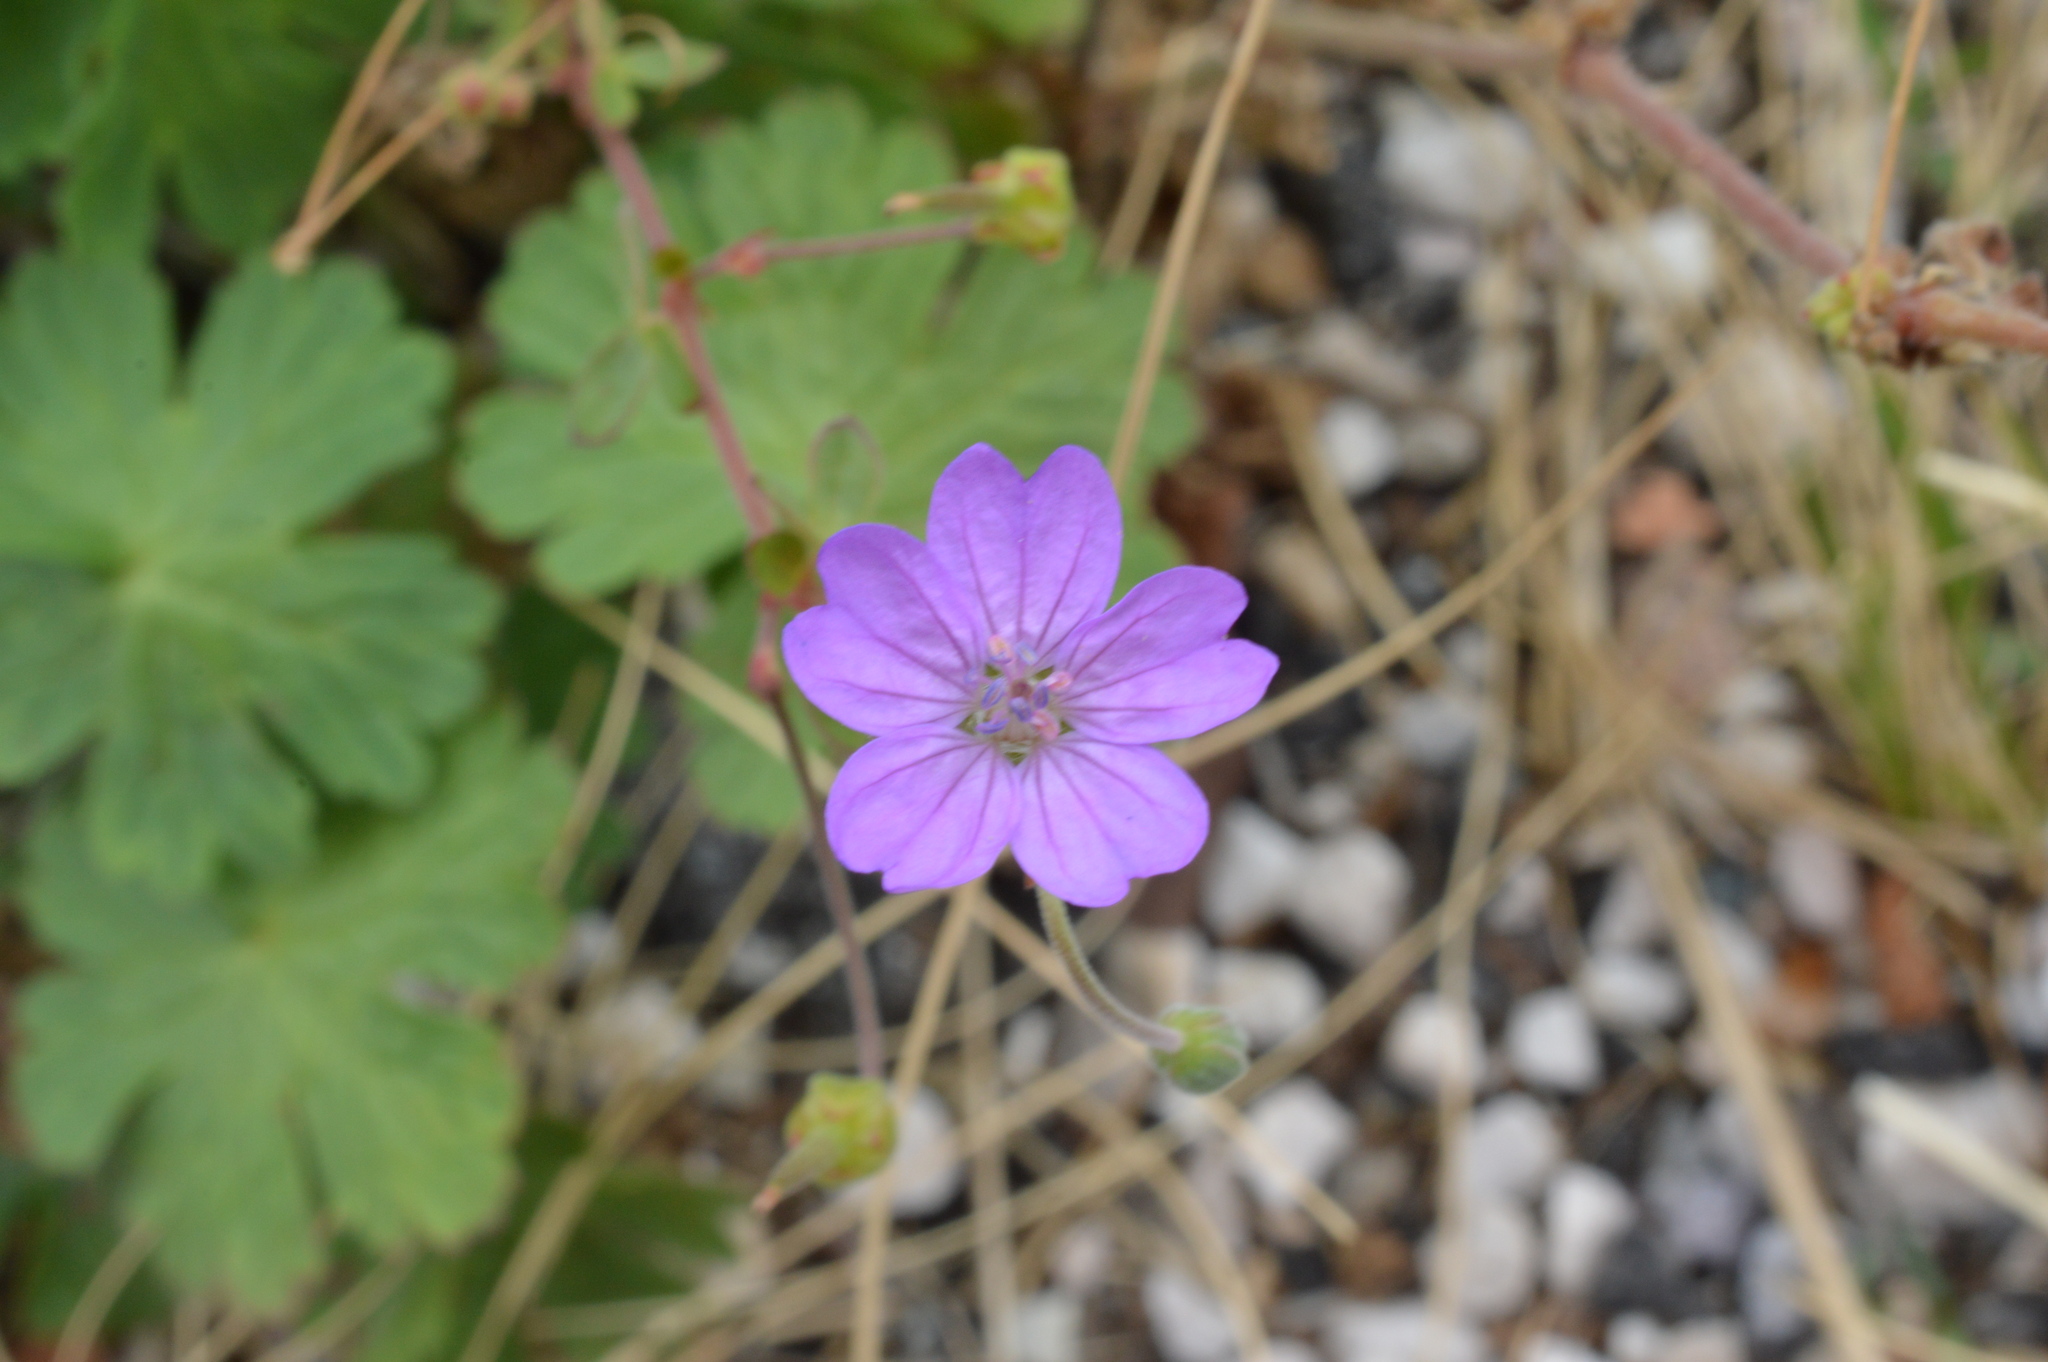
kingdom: Plantae
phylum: Tracheophyta
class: Magnoliopsida
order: Geraniales
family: Geraniaceae
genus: Geranium
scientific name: Geranium pyrenaicum
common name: Hedgerow crane's-bill
